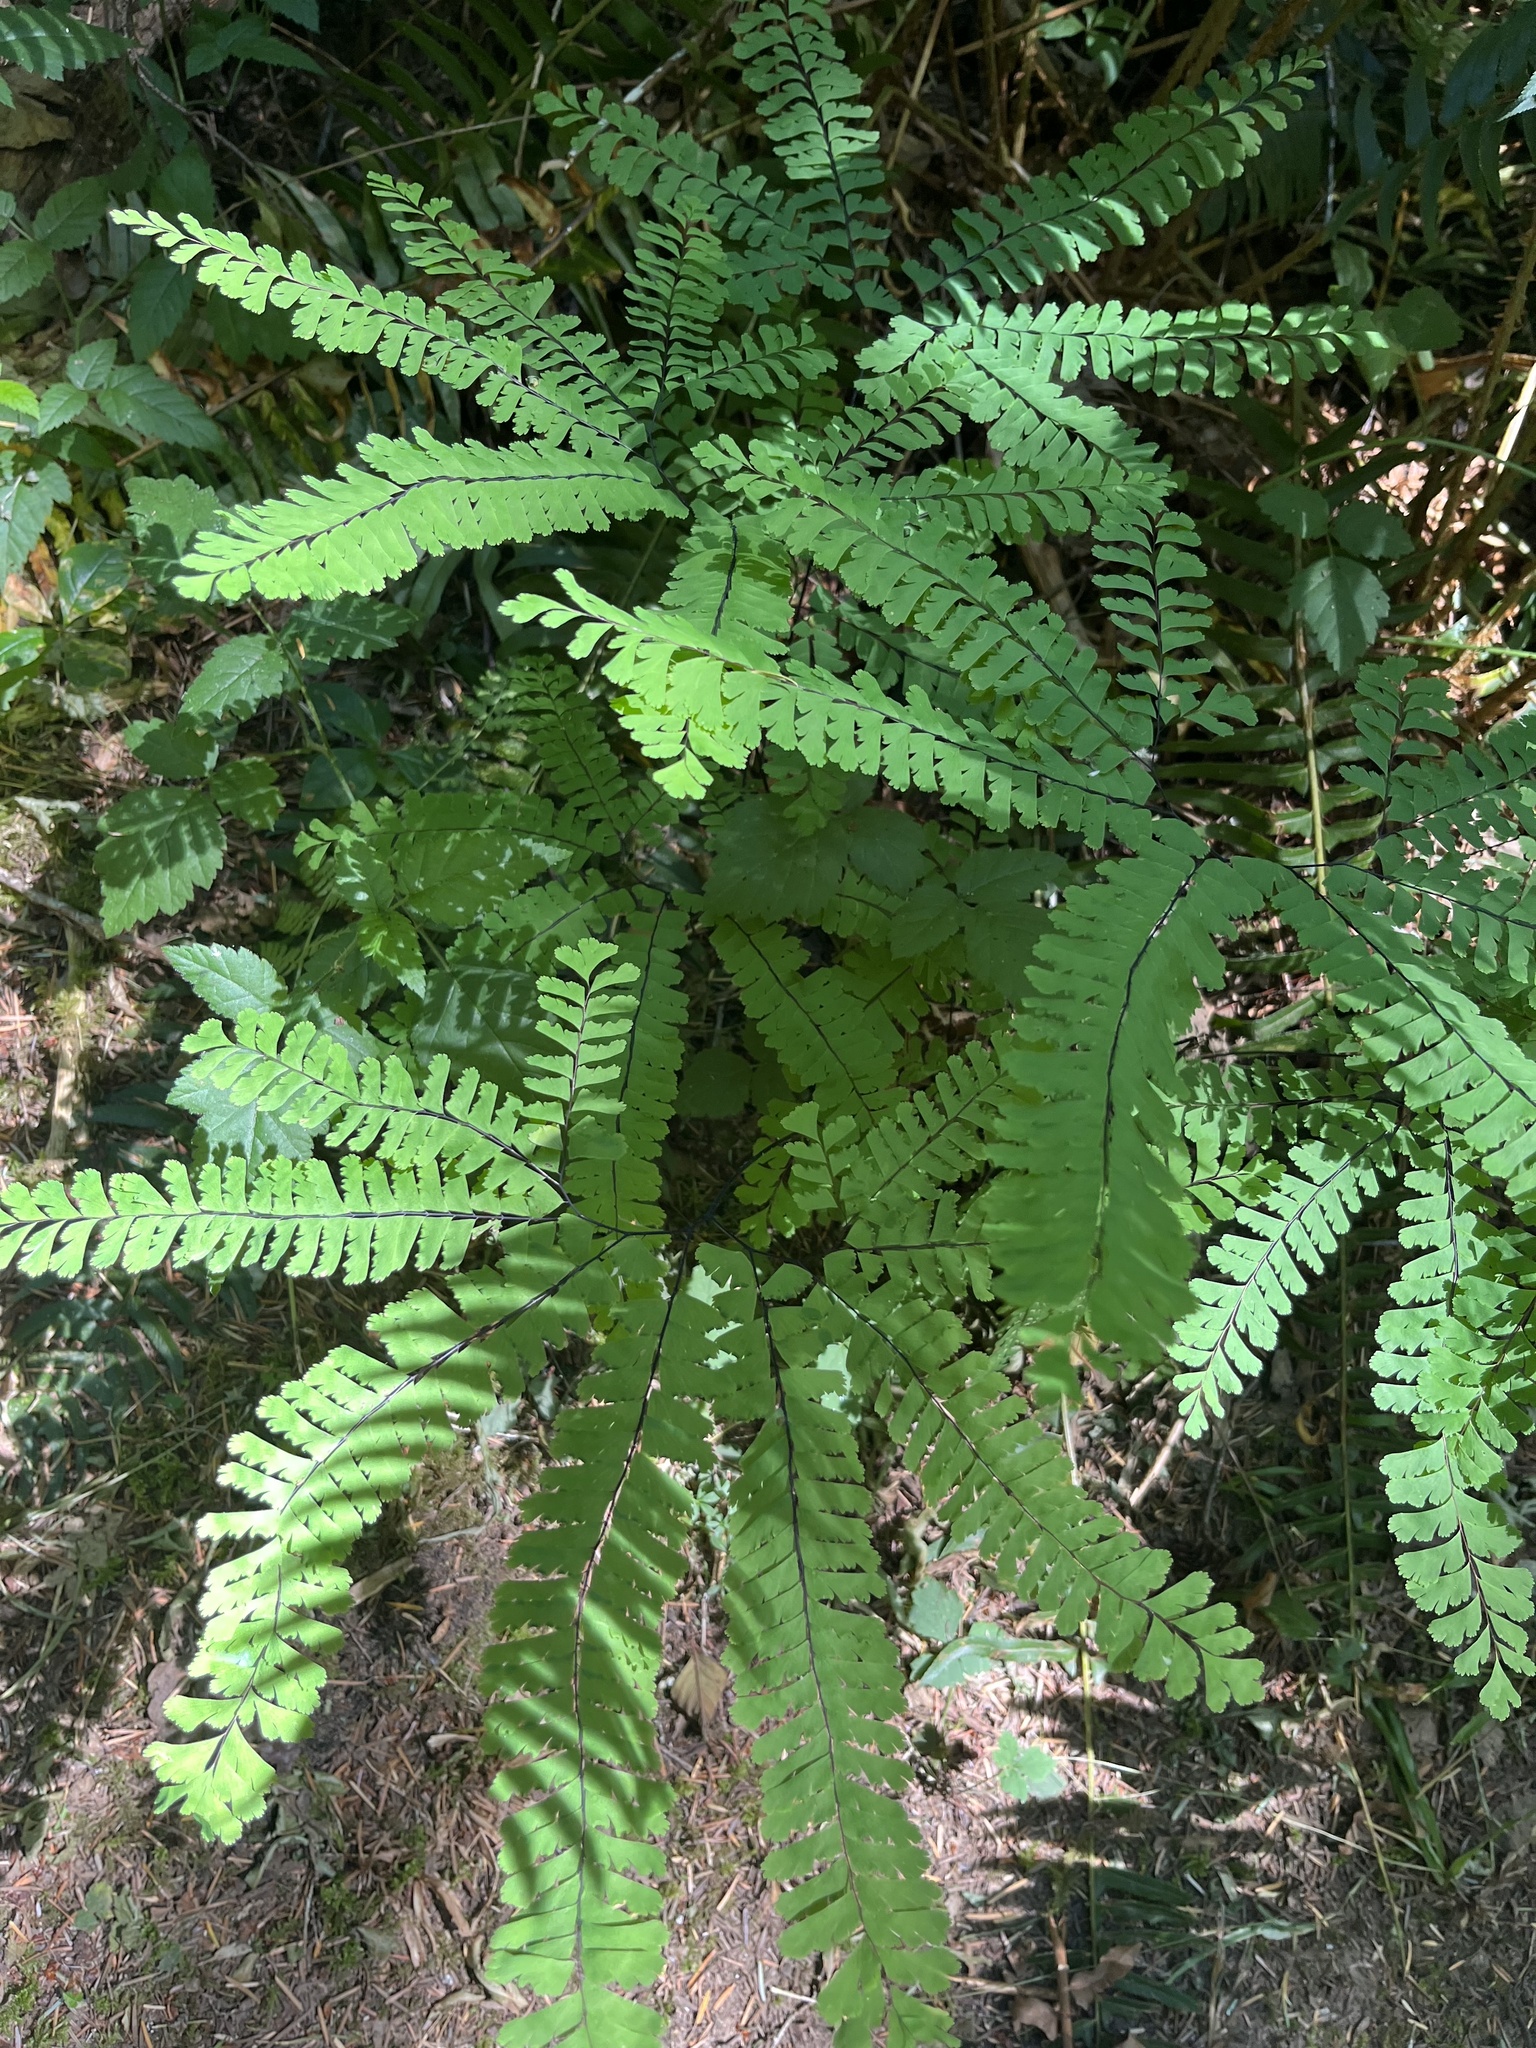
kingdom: Plantae
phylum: Tracheophyta
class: Polypodiopsida
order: Polypodiales
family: Pteridaceae
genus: Adiantum
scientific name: Adiantum aleuticum
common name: Aleutian maidenhair fern
